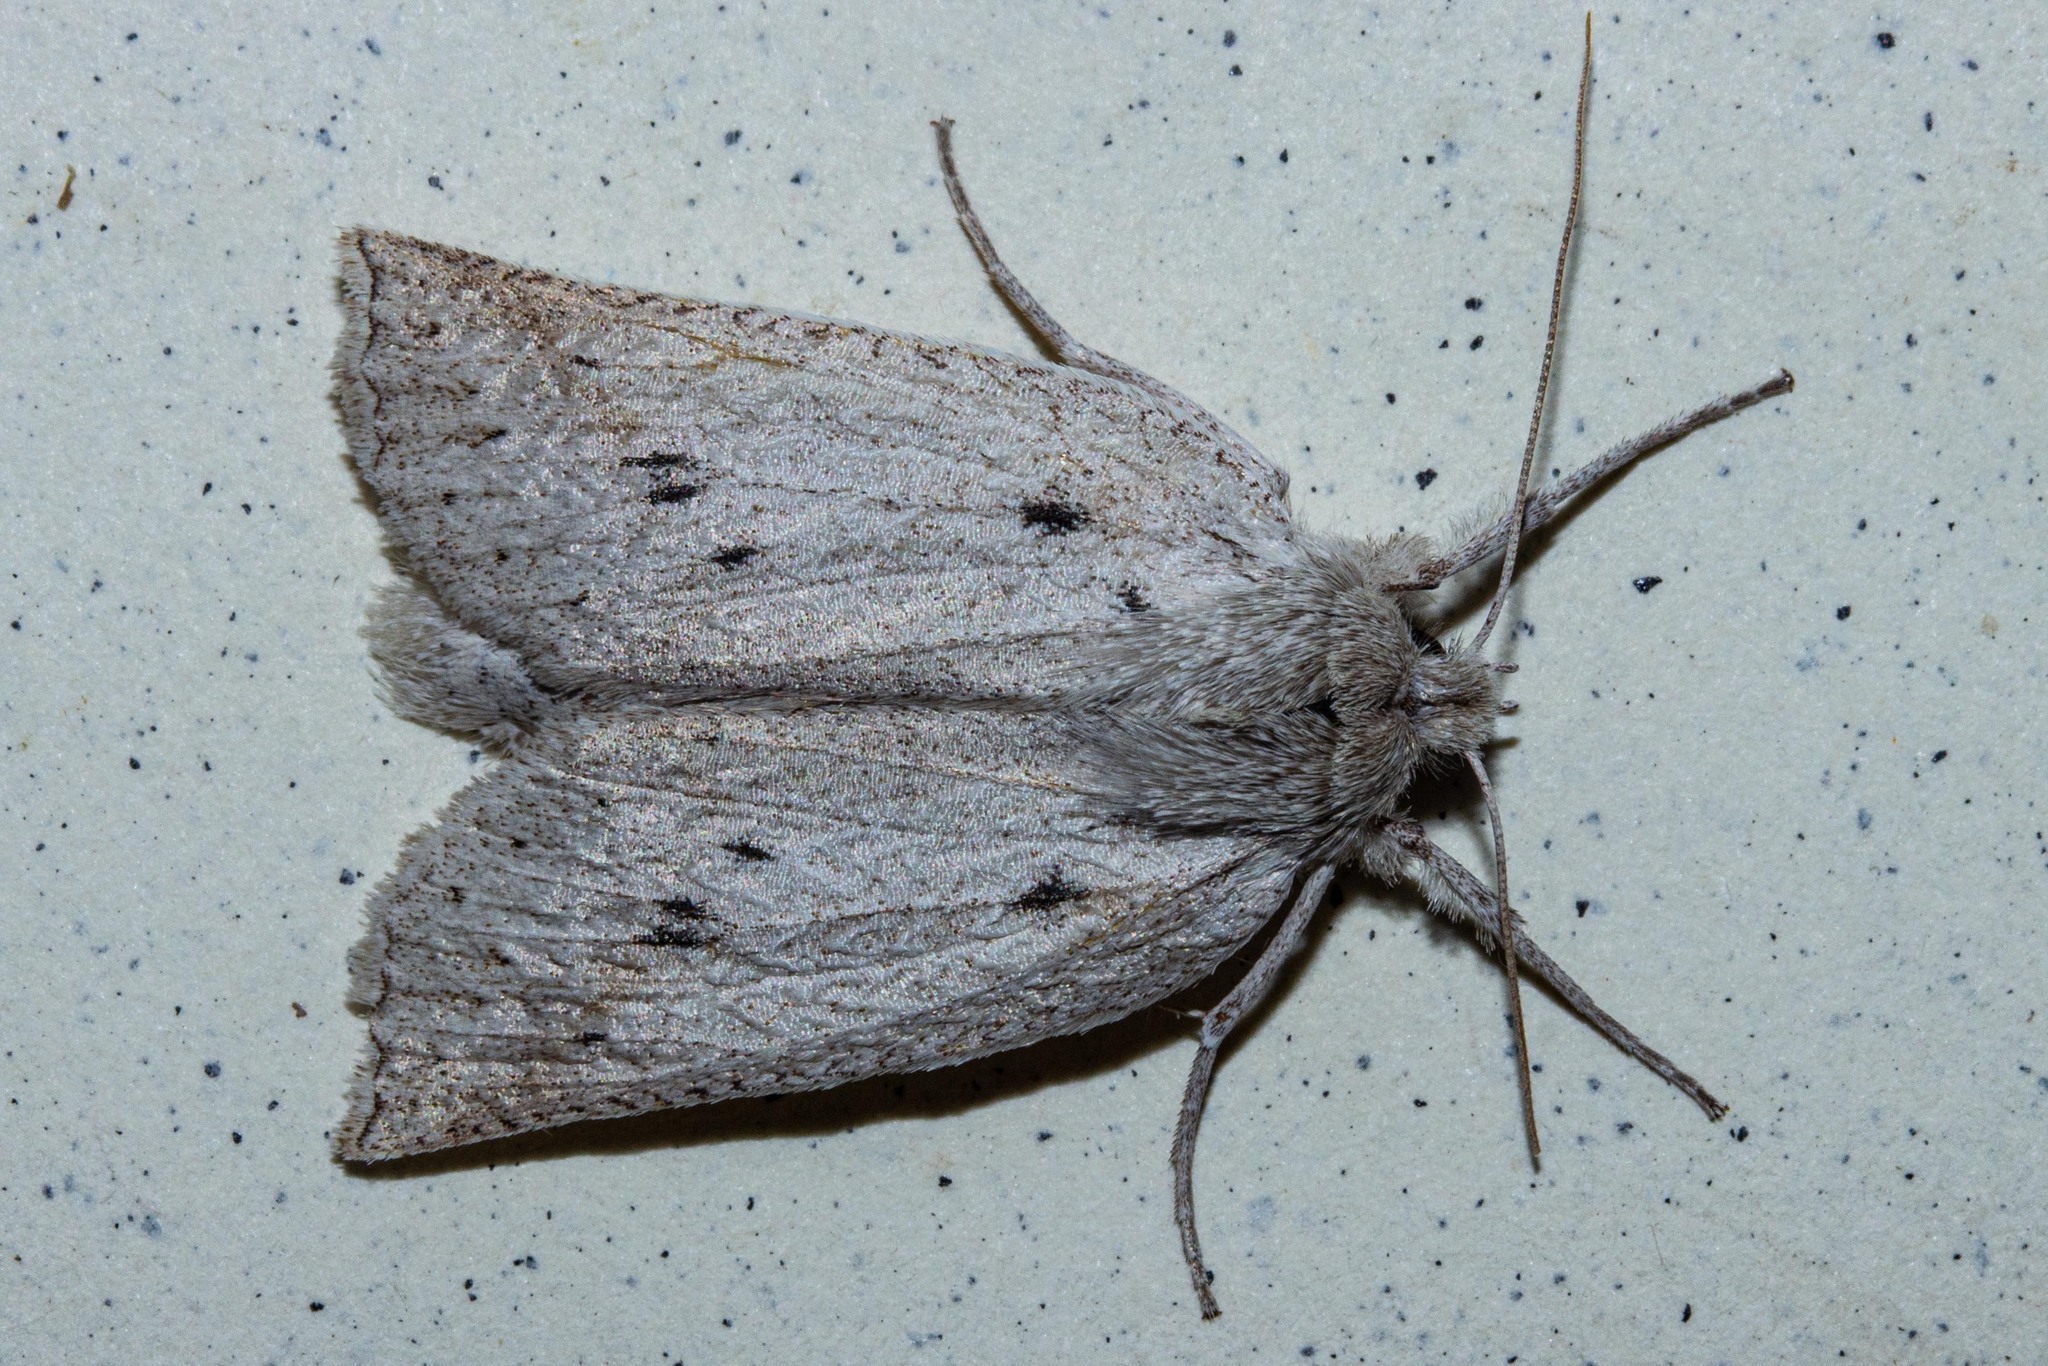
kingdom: Animalia
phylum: Arthropoda
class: Insecta
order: Lepidoptera
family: Geometridae
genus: Declana
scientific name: Declana leptomera
